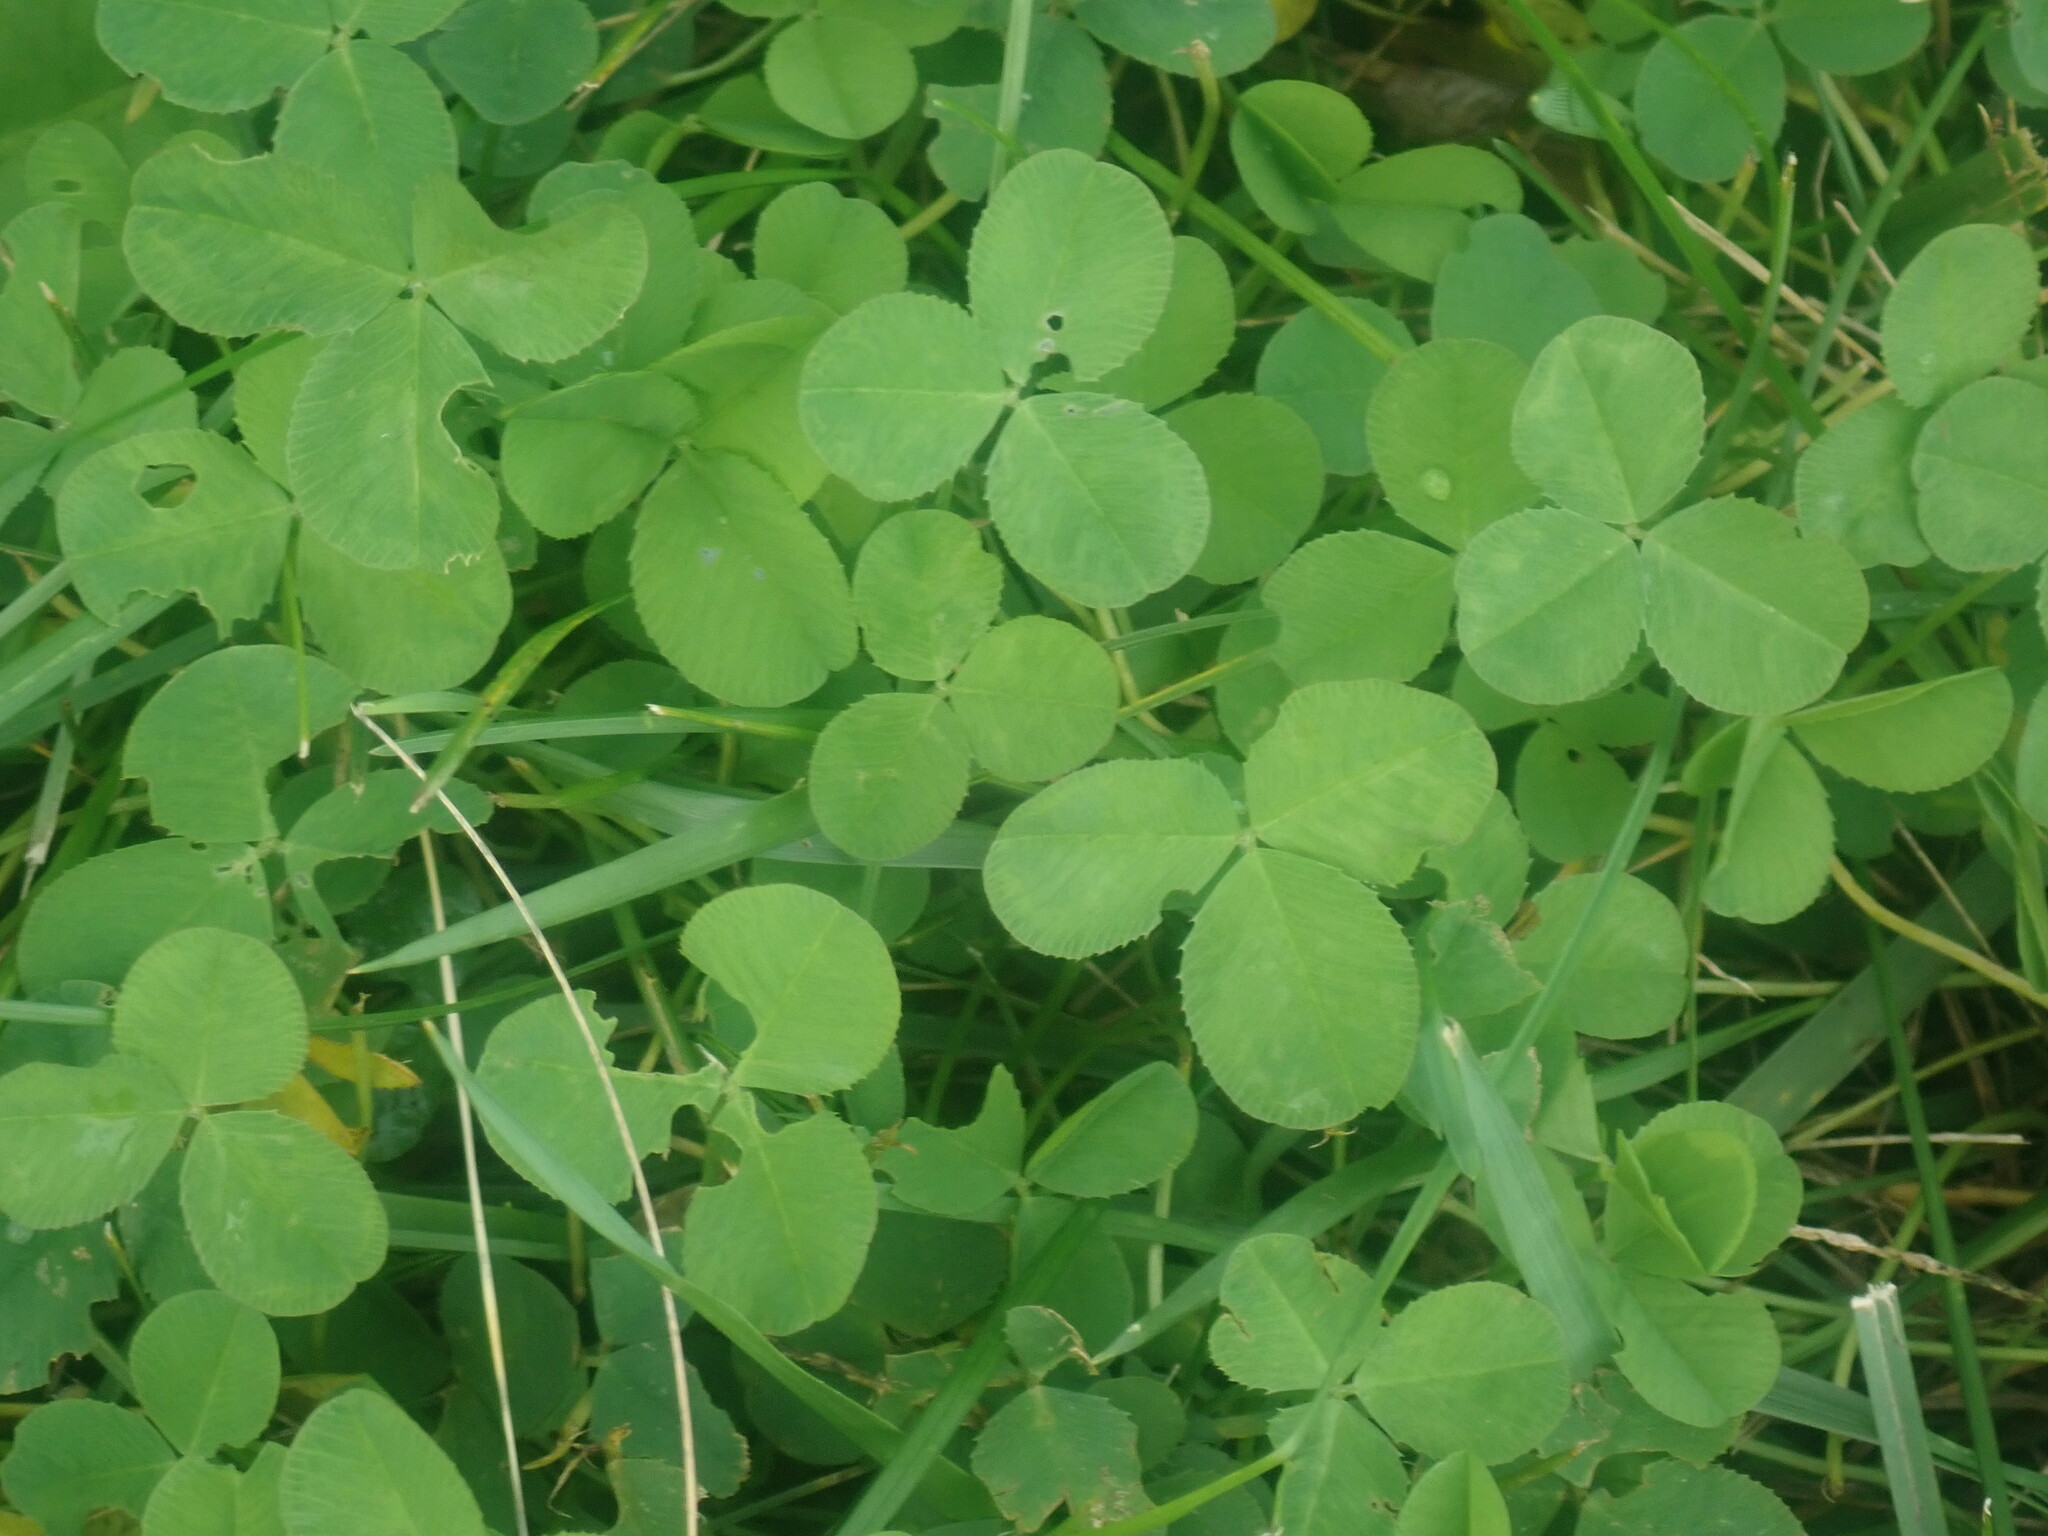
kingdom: Plantae
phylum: Tracheophyta
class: Magnoliopsida
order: Fabales
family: Fabaceae
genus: Trifolium
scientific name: Trifolium repens
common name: White clover
